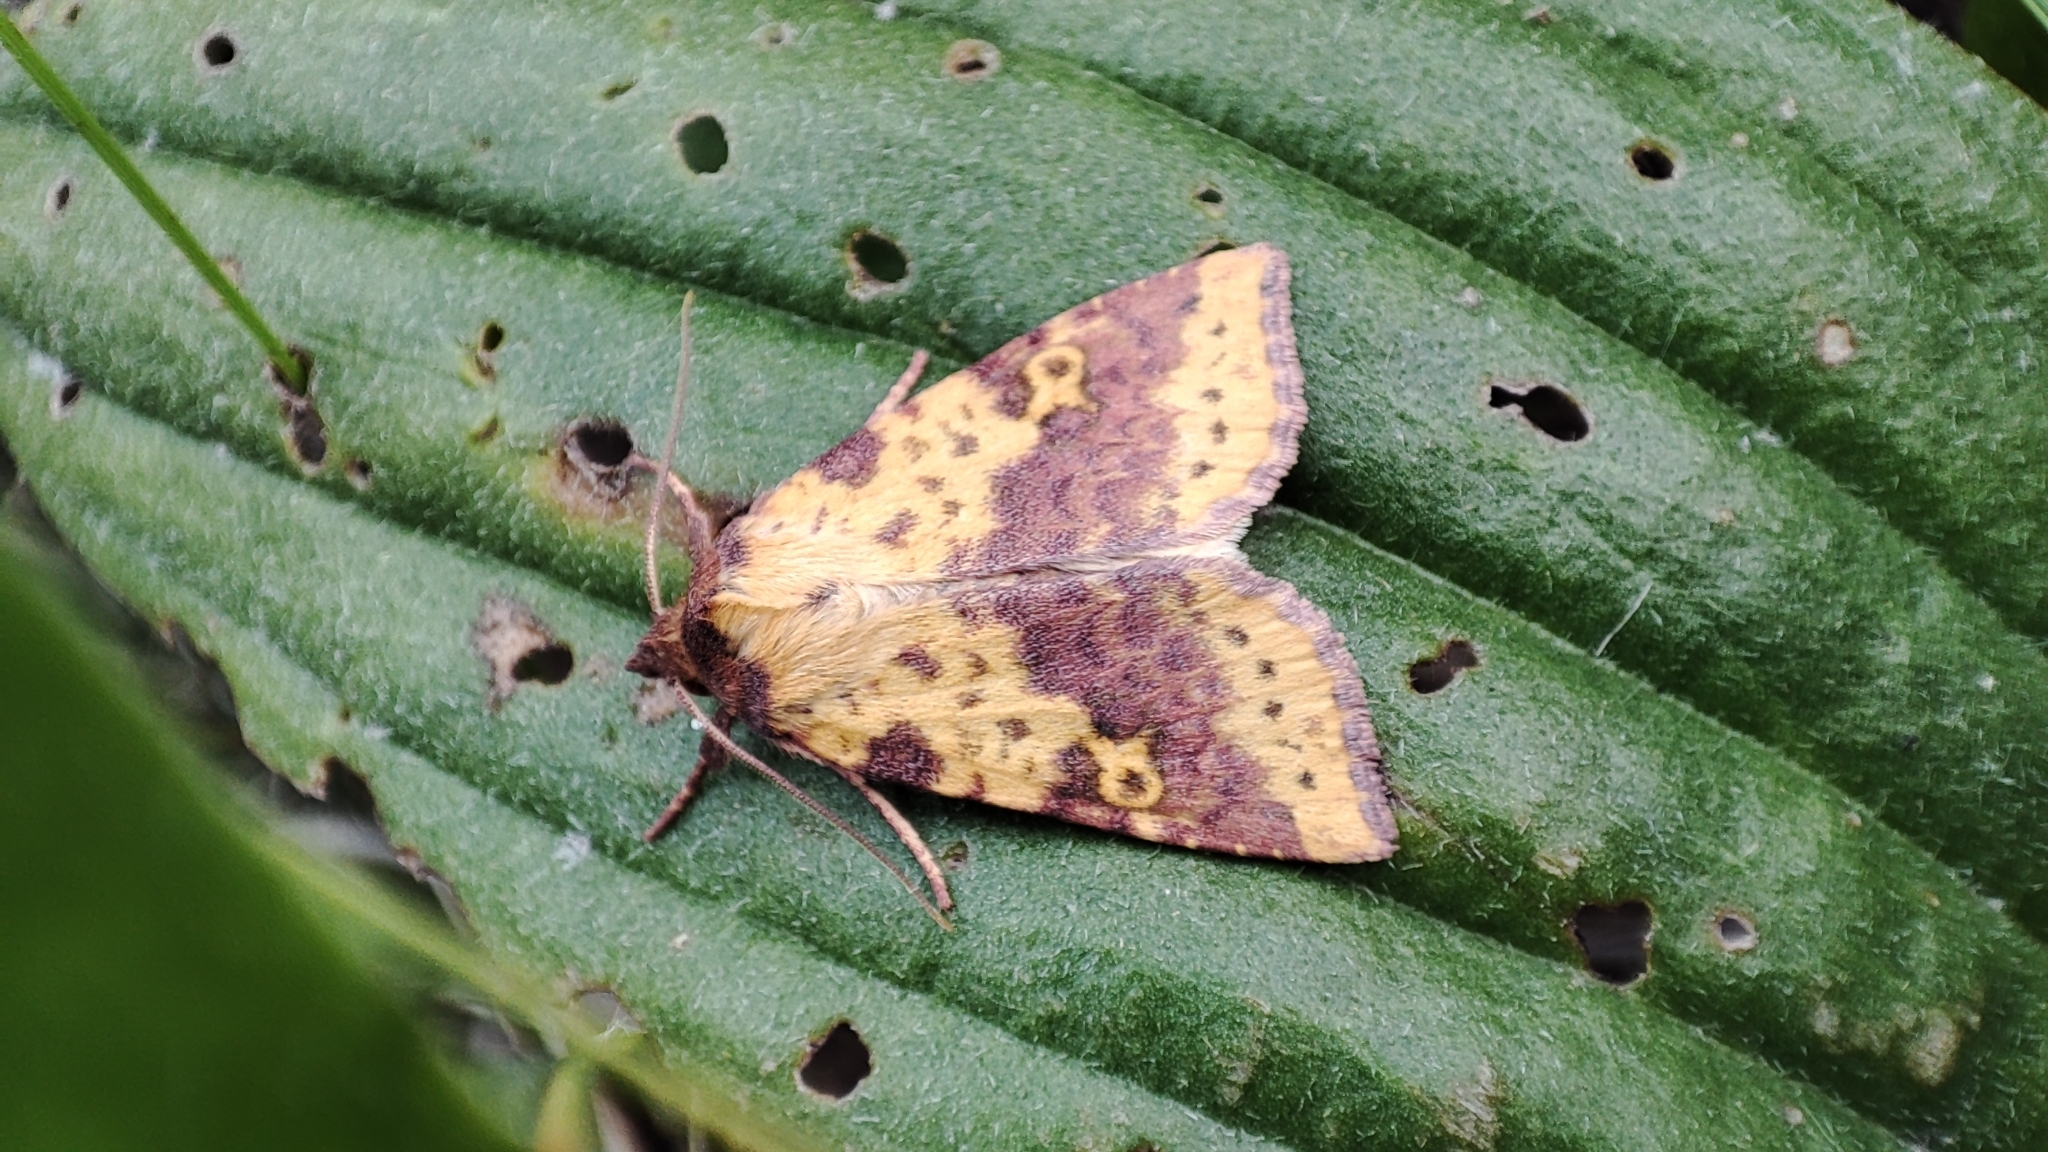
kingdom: Animalia
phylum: Arthropoda
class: Insecta
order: Lepidoptera
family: Noctuidae
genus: Xanthia
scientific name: Xanthia togata
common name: Pink-barred sallow
